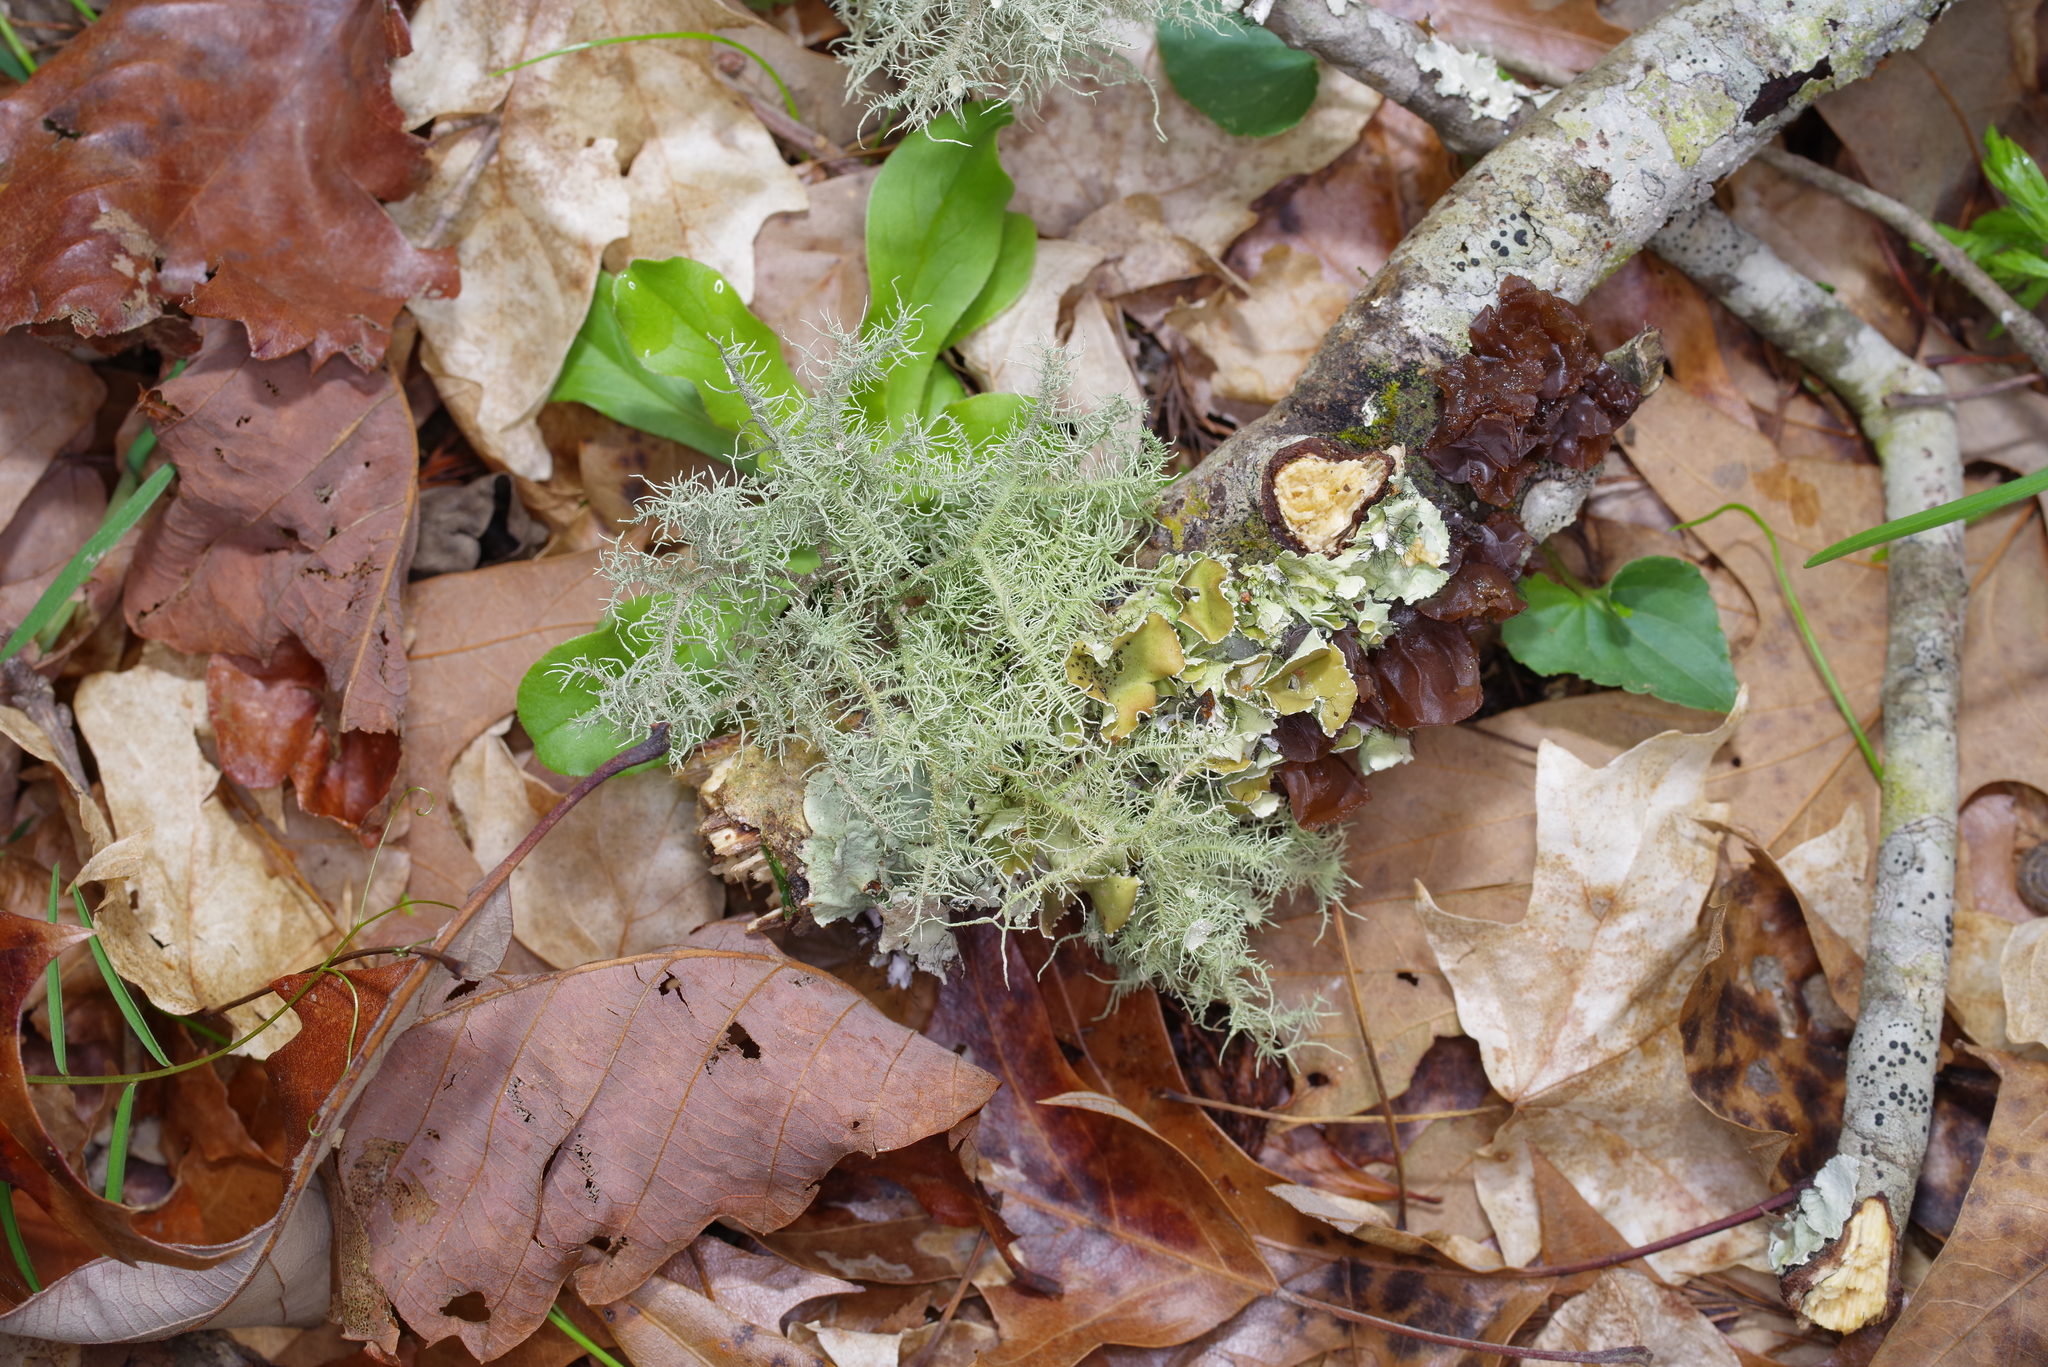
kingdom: Fungi
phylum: Ascomycota
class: Lecanoromycetes
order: Lecanorales
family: Parmeliaceae
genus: Usnea
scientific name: Usnea strigosa
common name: Bushy beard lichen
